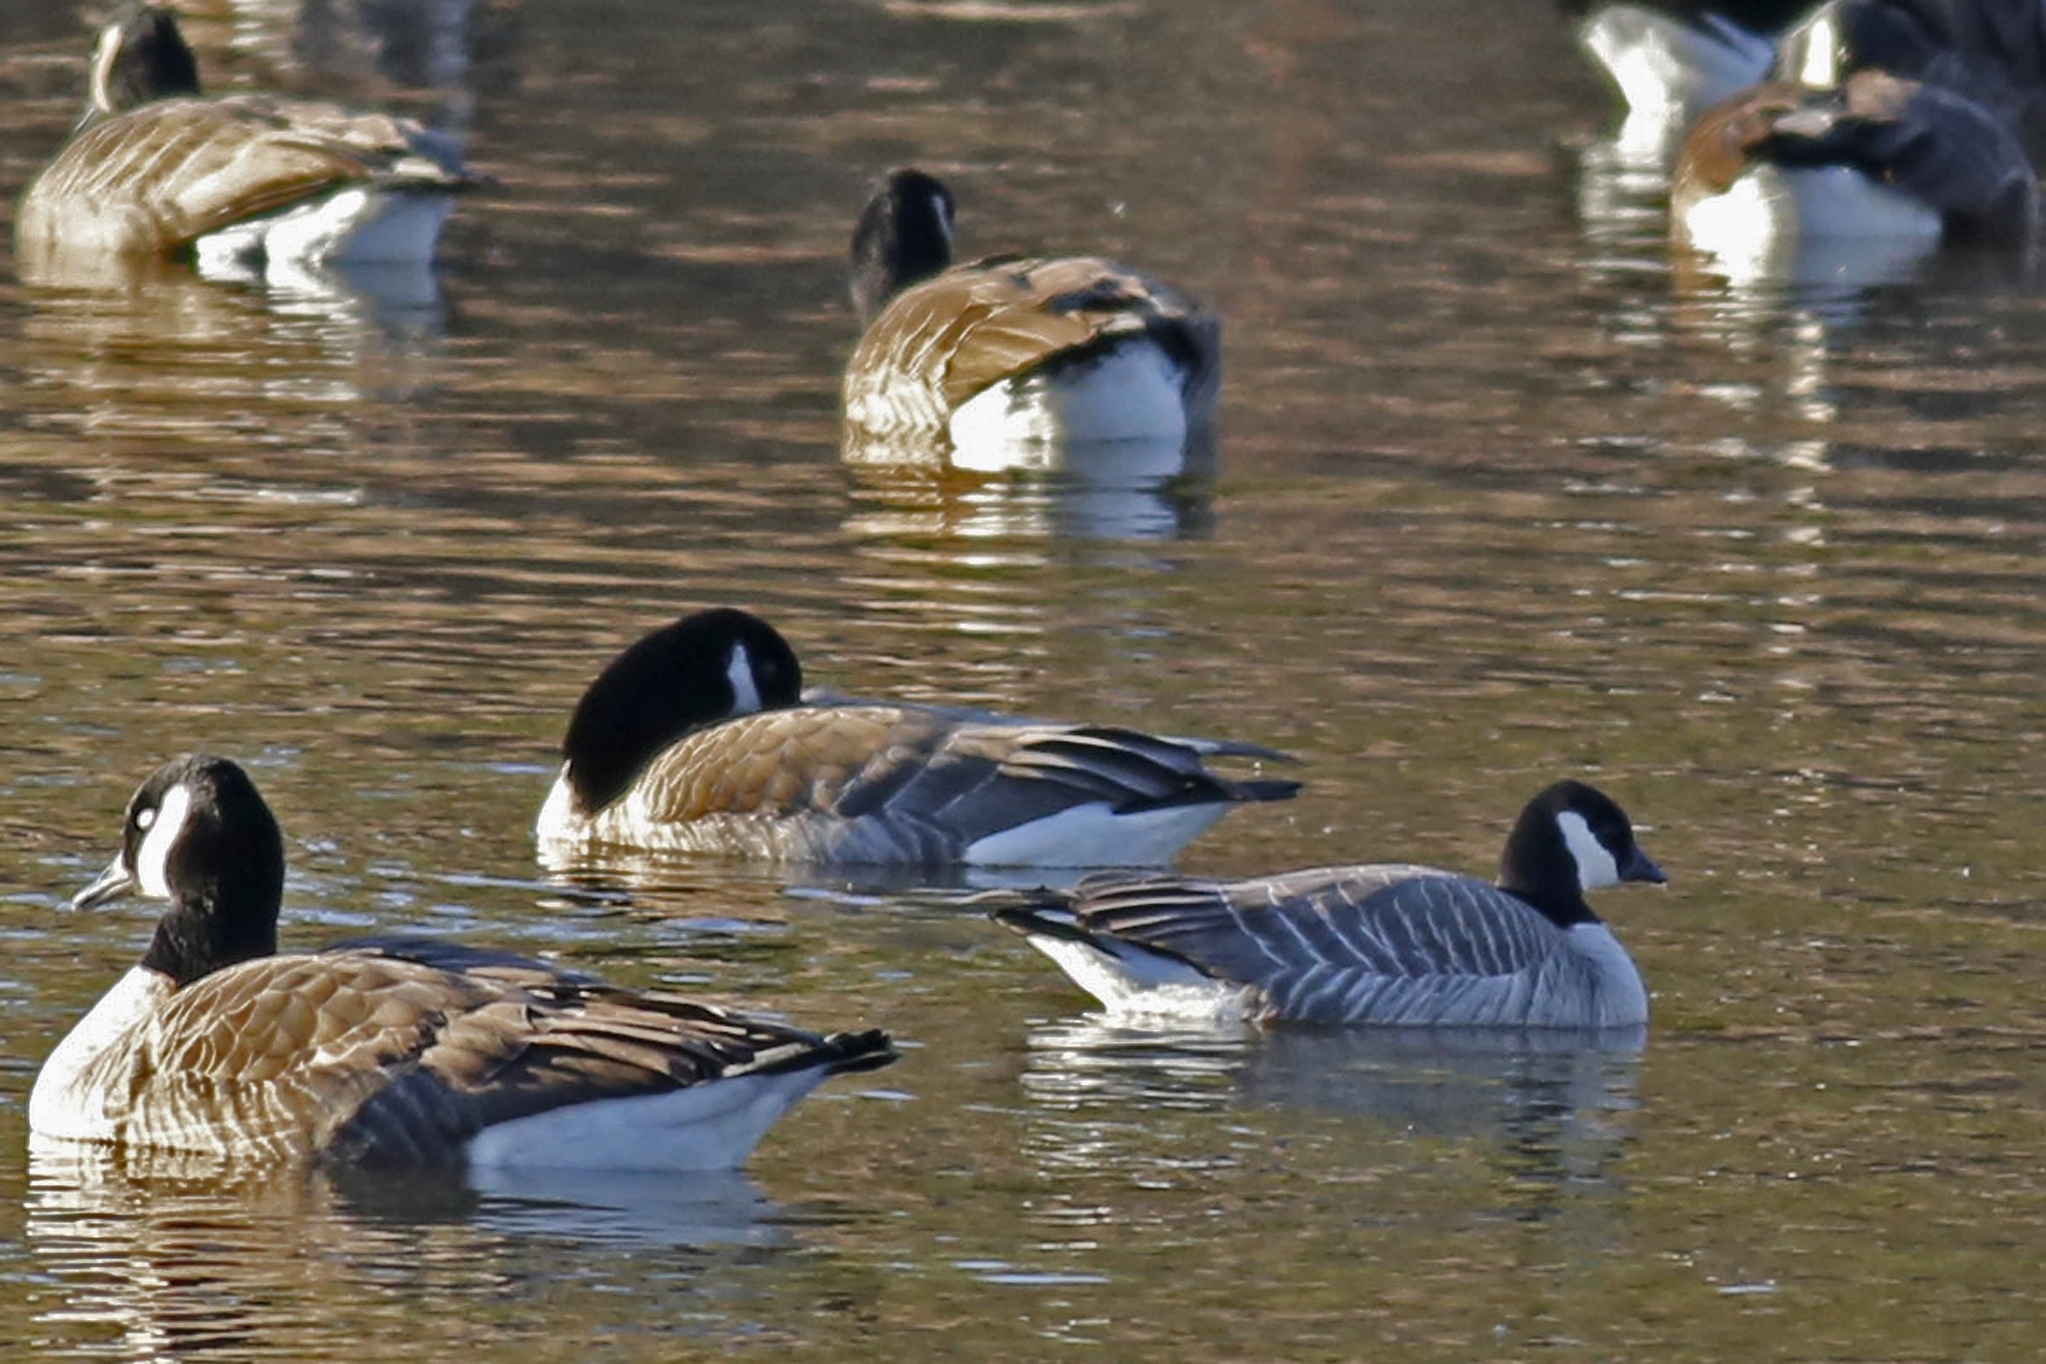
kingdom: Animalia
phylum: Chordata
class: Aves
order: Anseriformes
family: Anatidae
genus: Branta
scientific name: Branta hutchinsii
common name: Cackling goose
